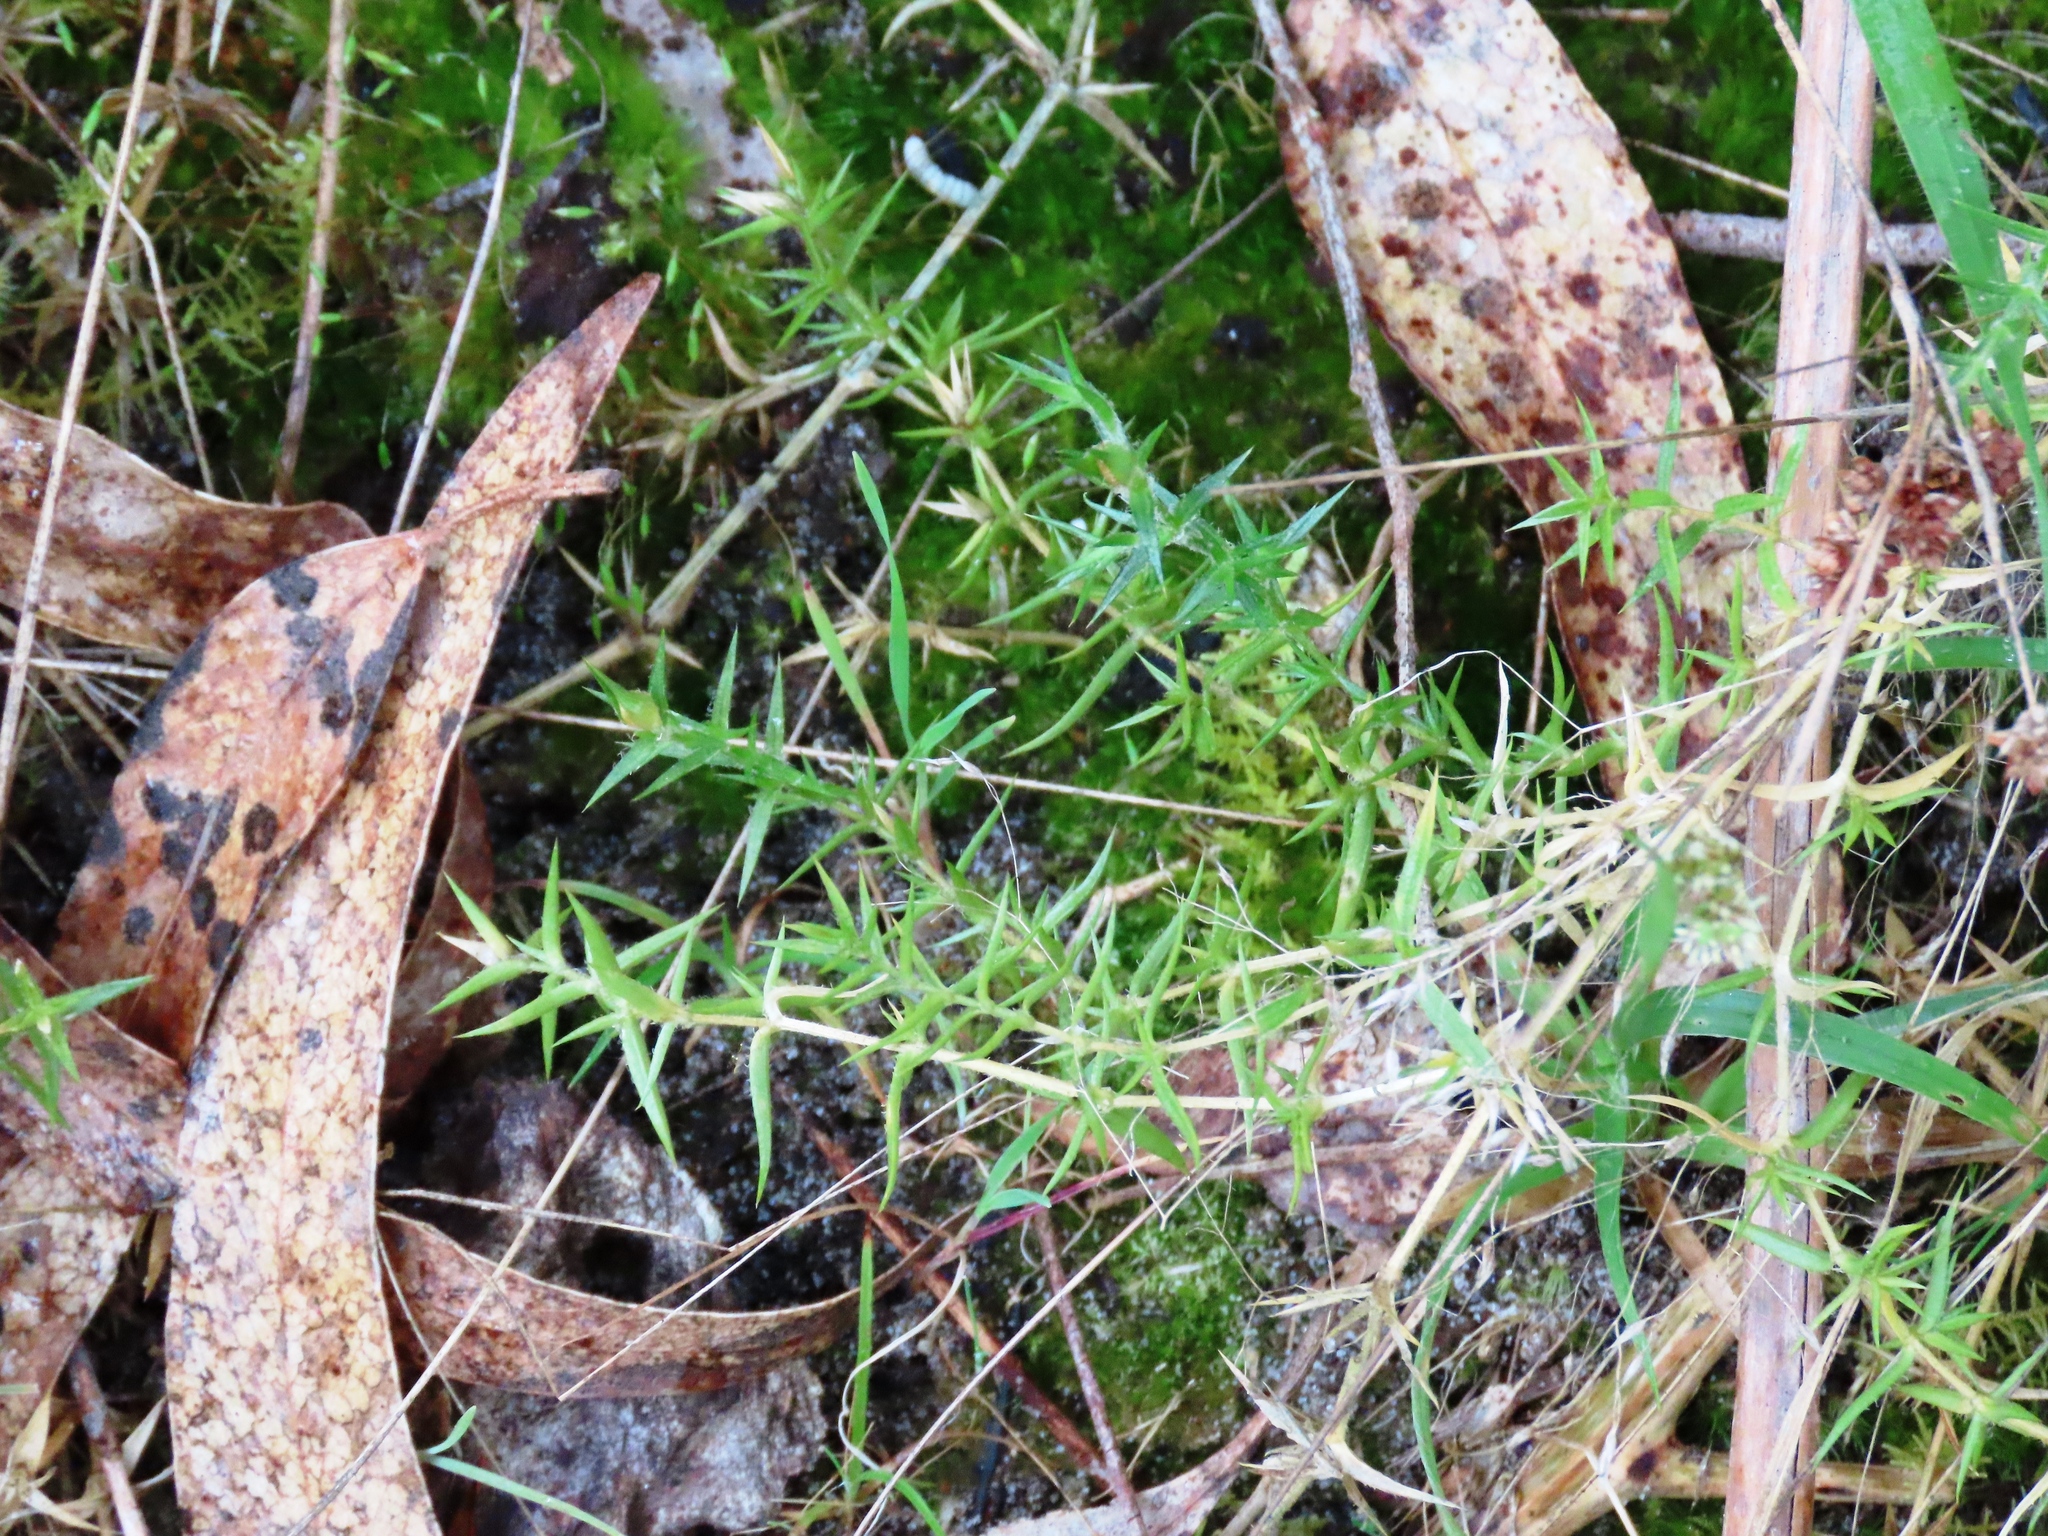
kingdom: Plantae
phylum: Tracheophyta
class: Magnoliopsida
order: Caryophyllales
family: Caryophyllaceae
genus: Stellaria
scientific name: Stellaria pungens
